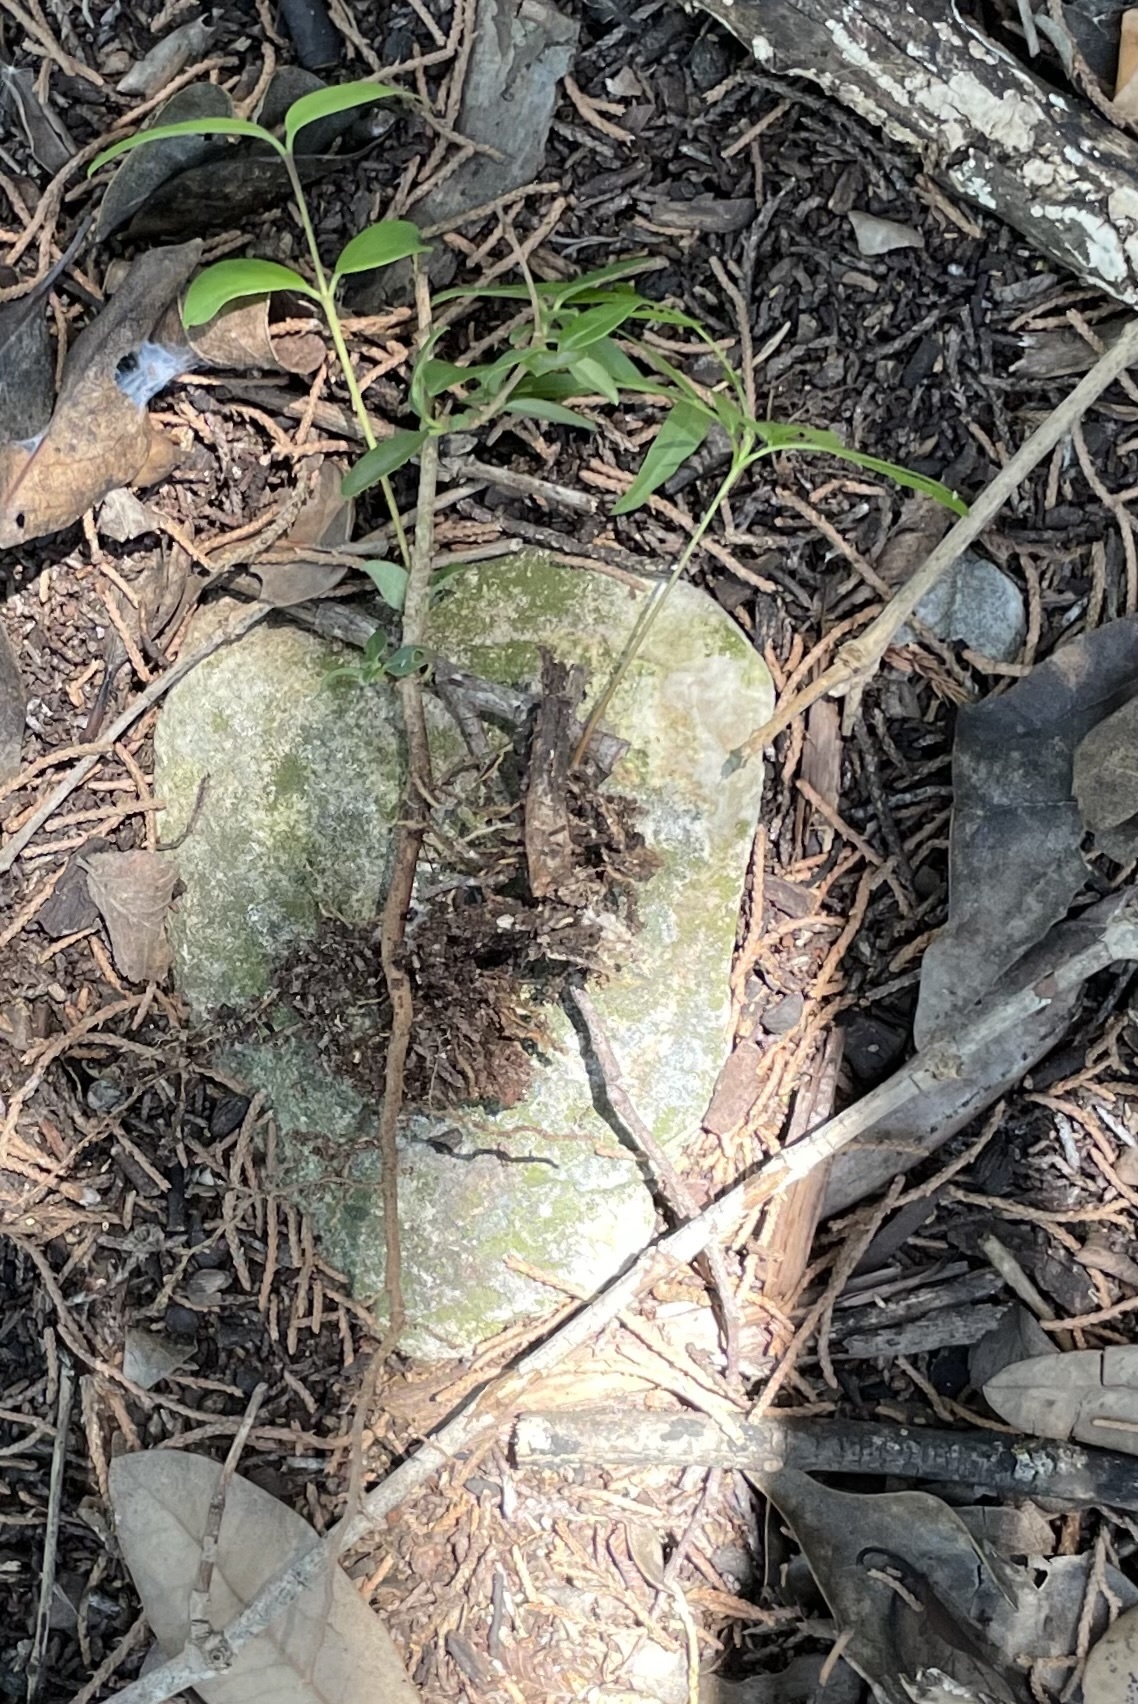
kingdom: Plantae
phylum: Tracheophyta
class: Magnoliopsida
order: Lamiales
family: Oleaceae
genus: Ligustrum
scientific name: Ligustrum lucidum
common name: Glossy privet
